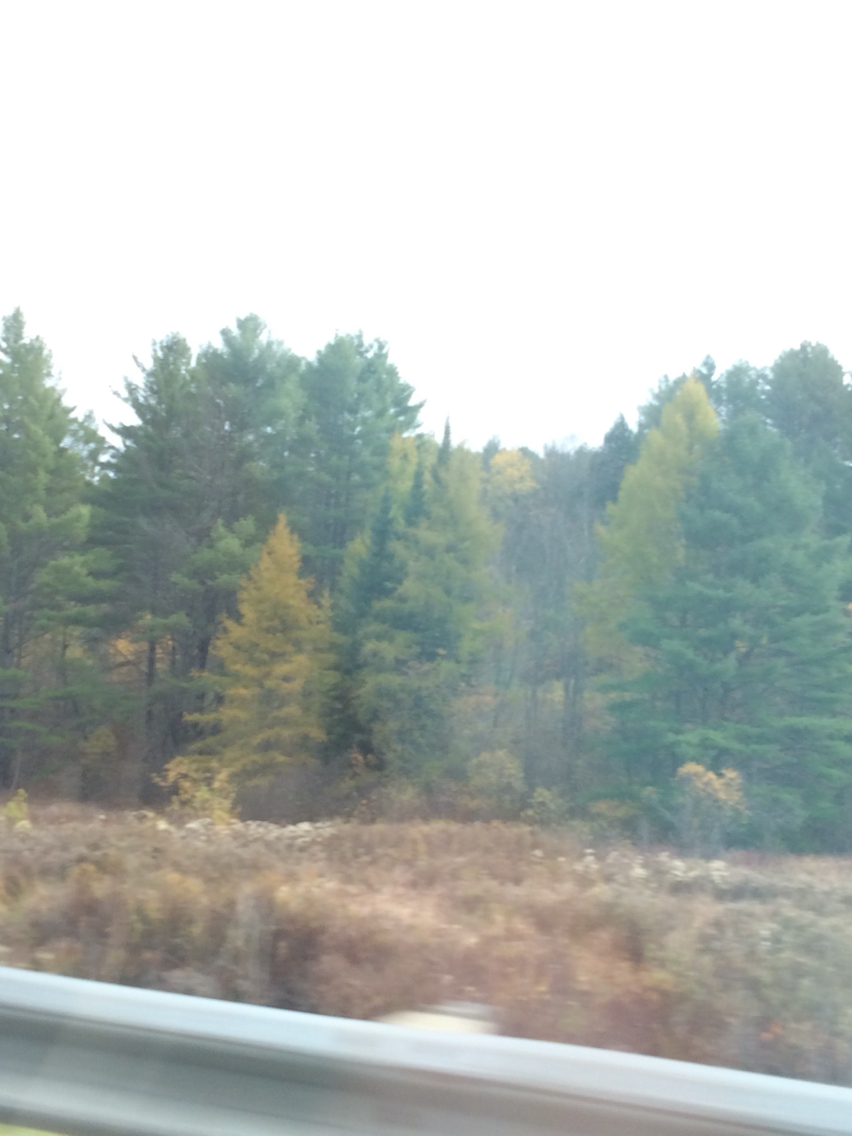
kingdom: Plantae
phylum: Tracheophyta
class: Pinopsida
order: Pinales
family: Pinaceae
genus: Larix
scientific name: Larix laricina
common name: American larch
